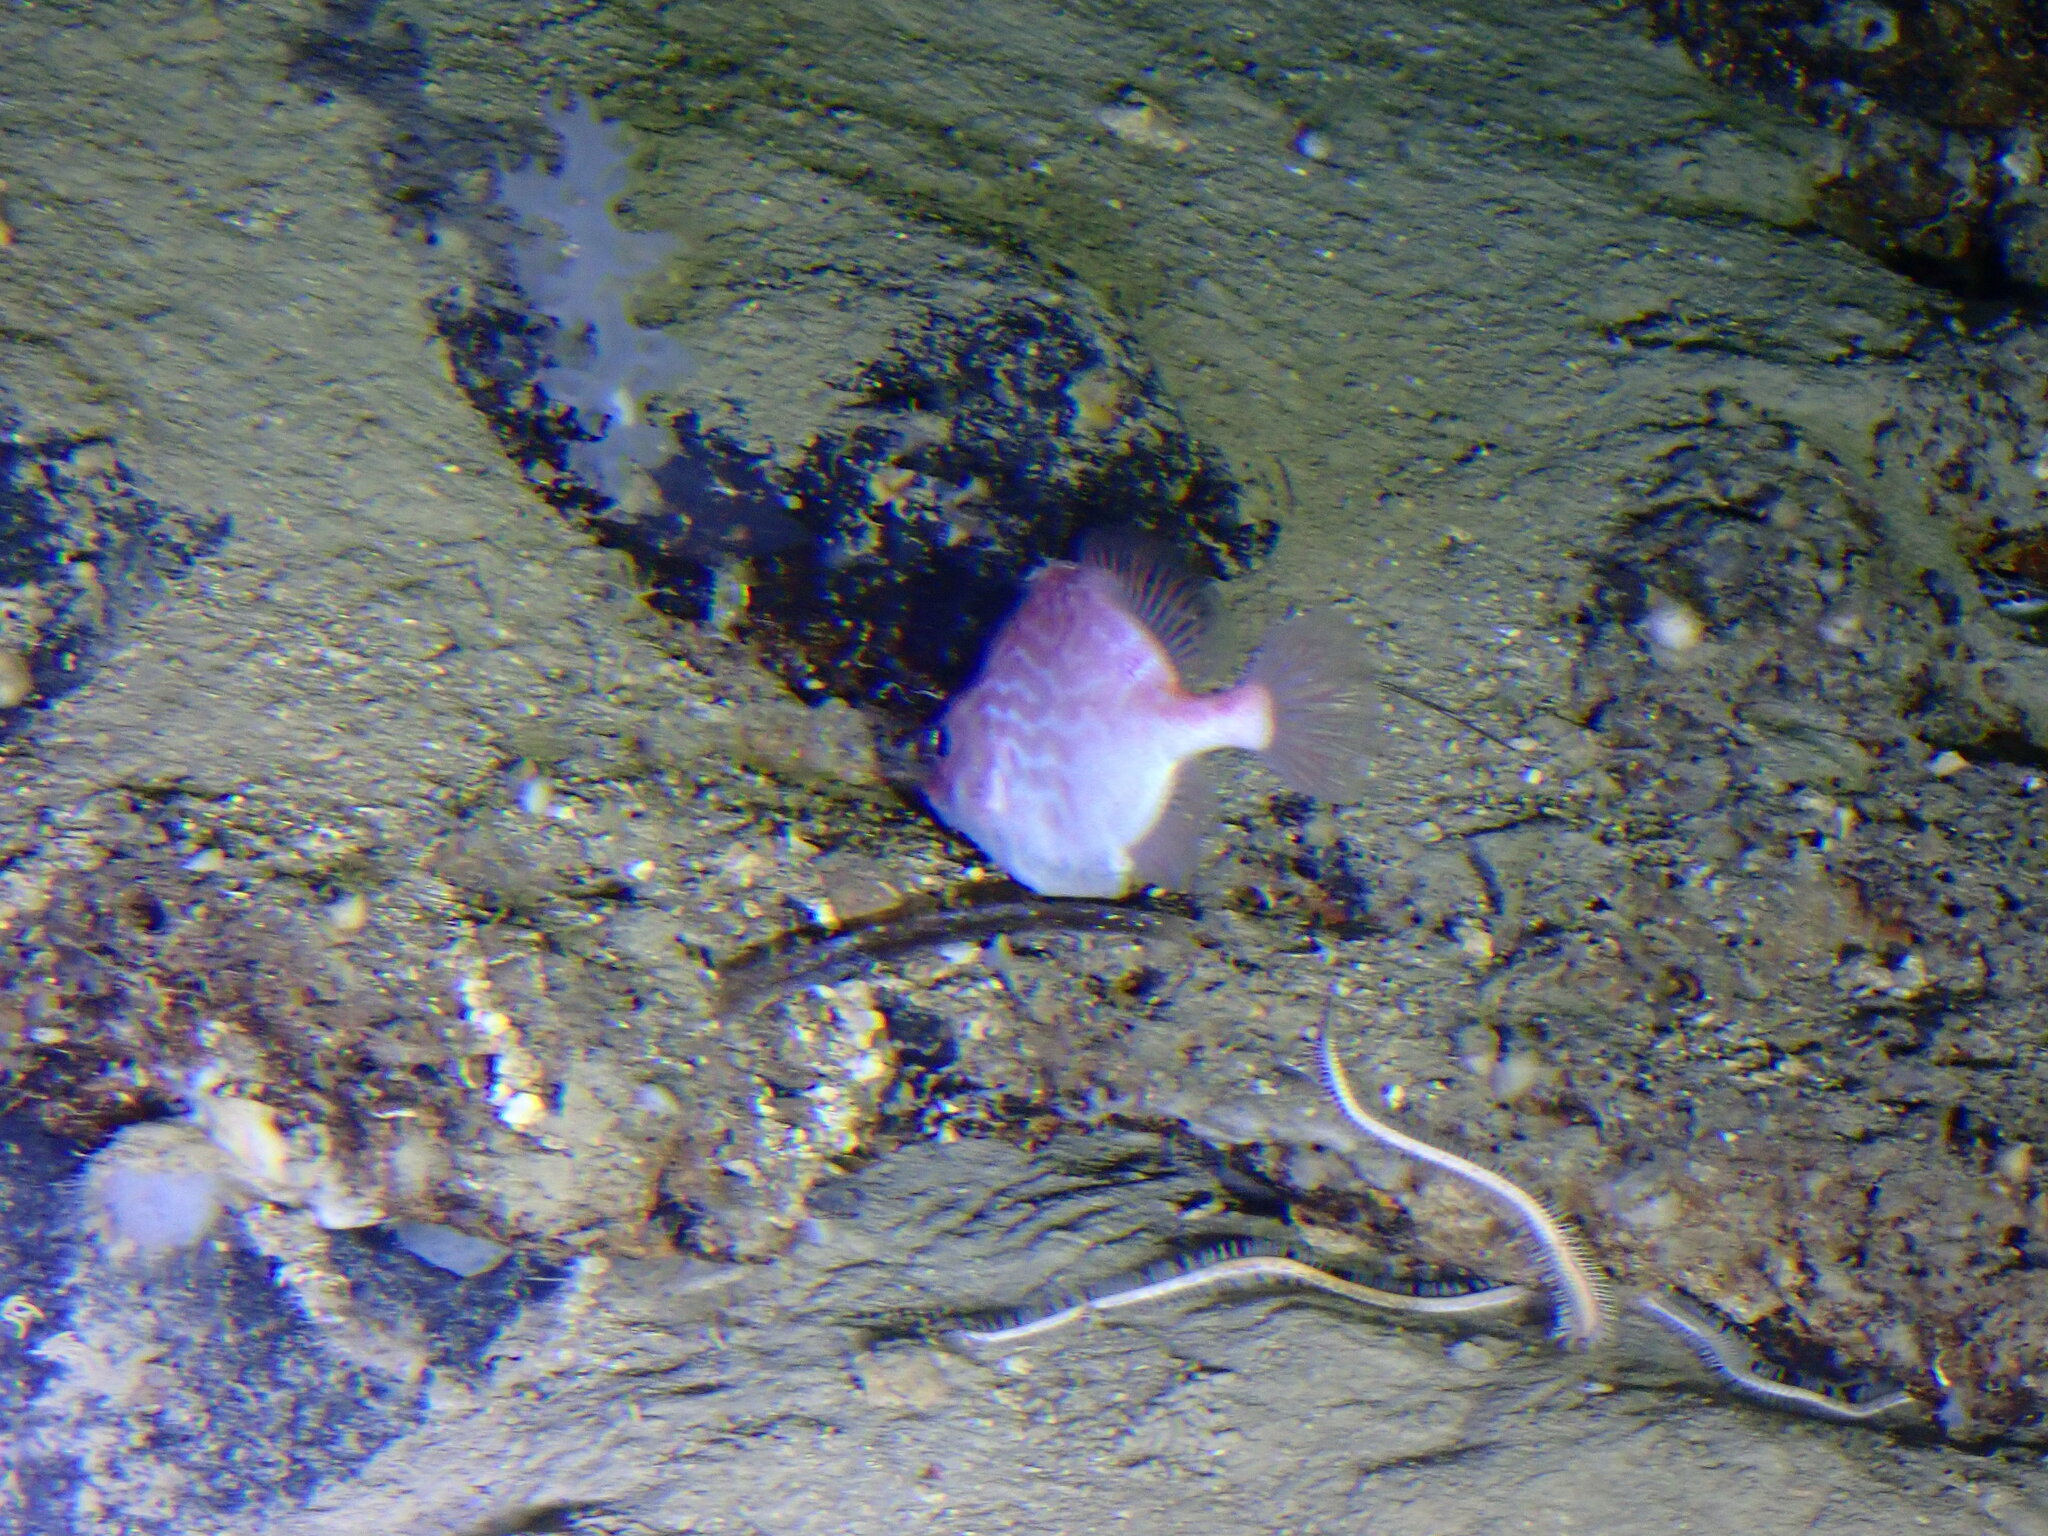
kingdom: Animalia
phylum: Chordata
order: Tetraodontiformes
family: Triacanthodidae
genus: Hollardia
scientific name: Hollardia hollardi
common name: Reticulate spikefish
